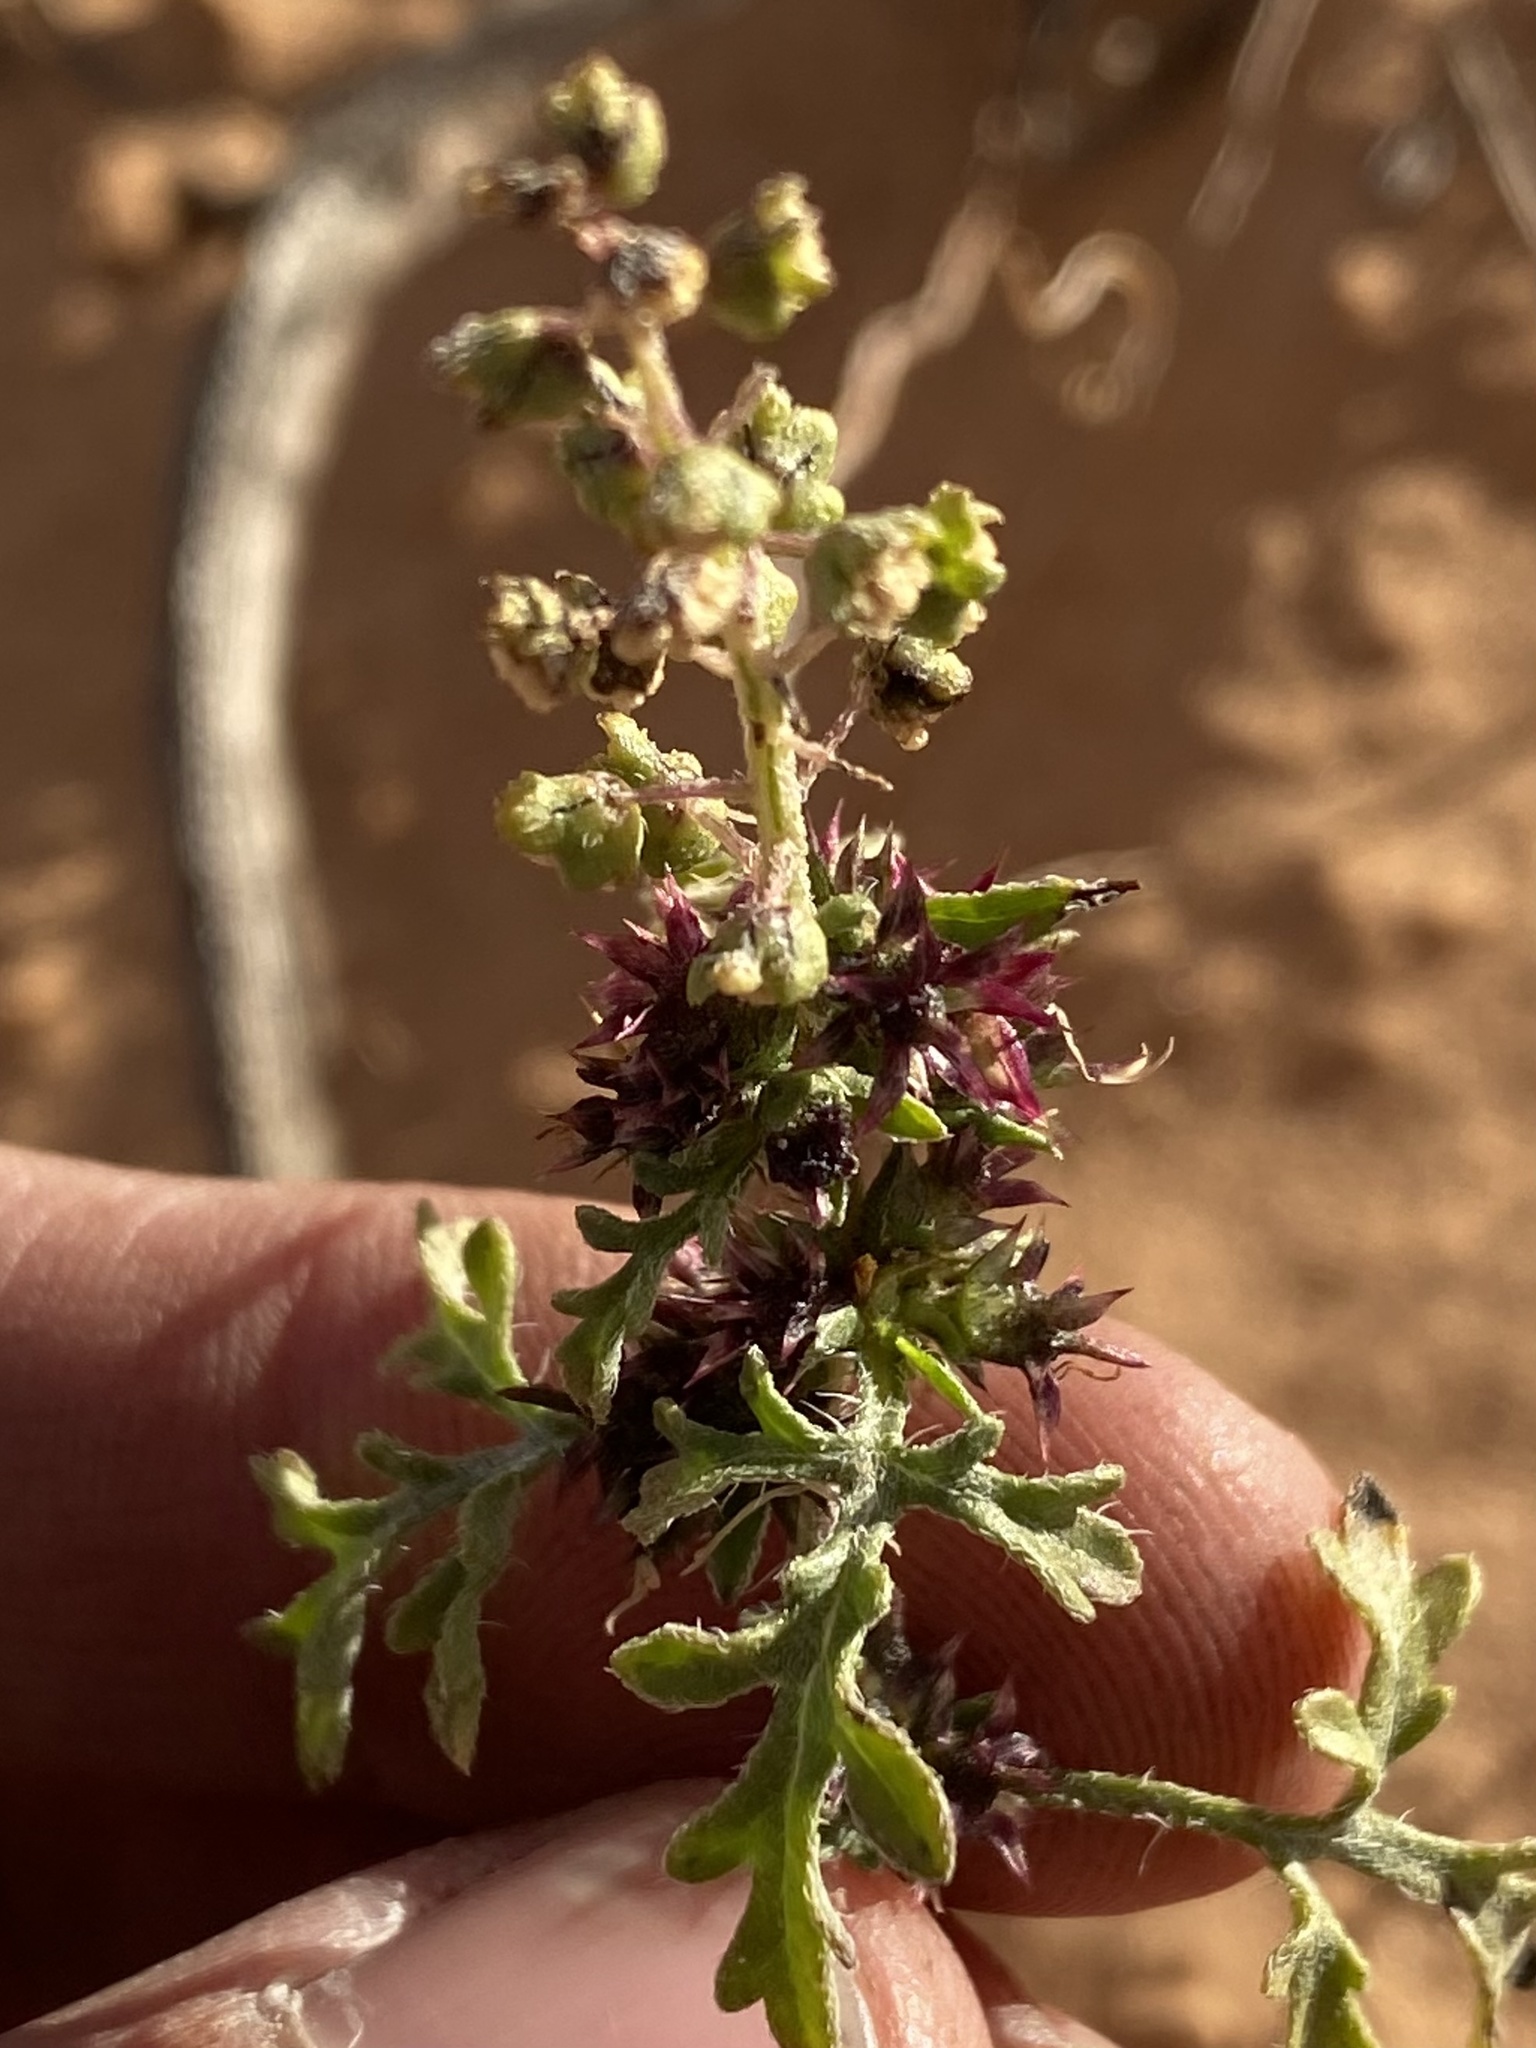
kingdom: Plantae
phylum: Tracheophyta
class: Magnoliopsida
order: Asterales
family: Asteraceae
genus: Ambrosia
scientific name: Ambrosia acanthicarpa
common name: Hooker's bur ragweed
